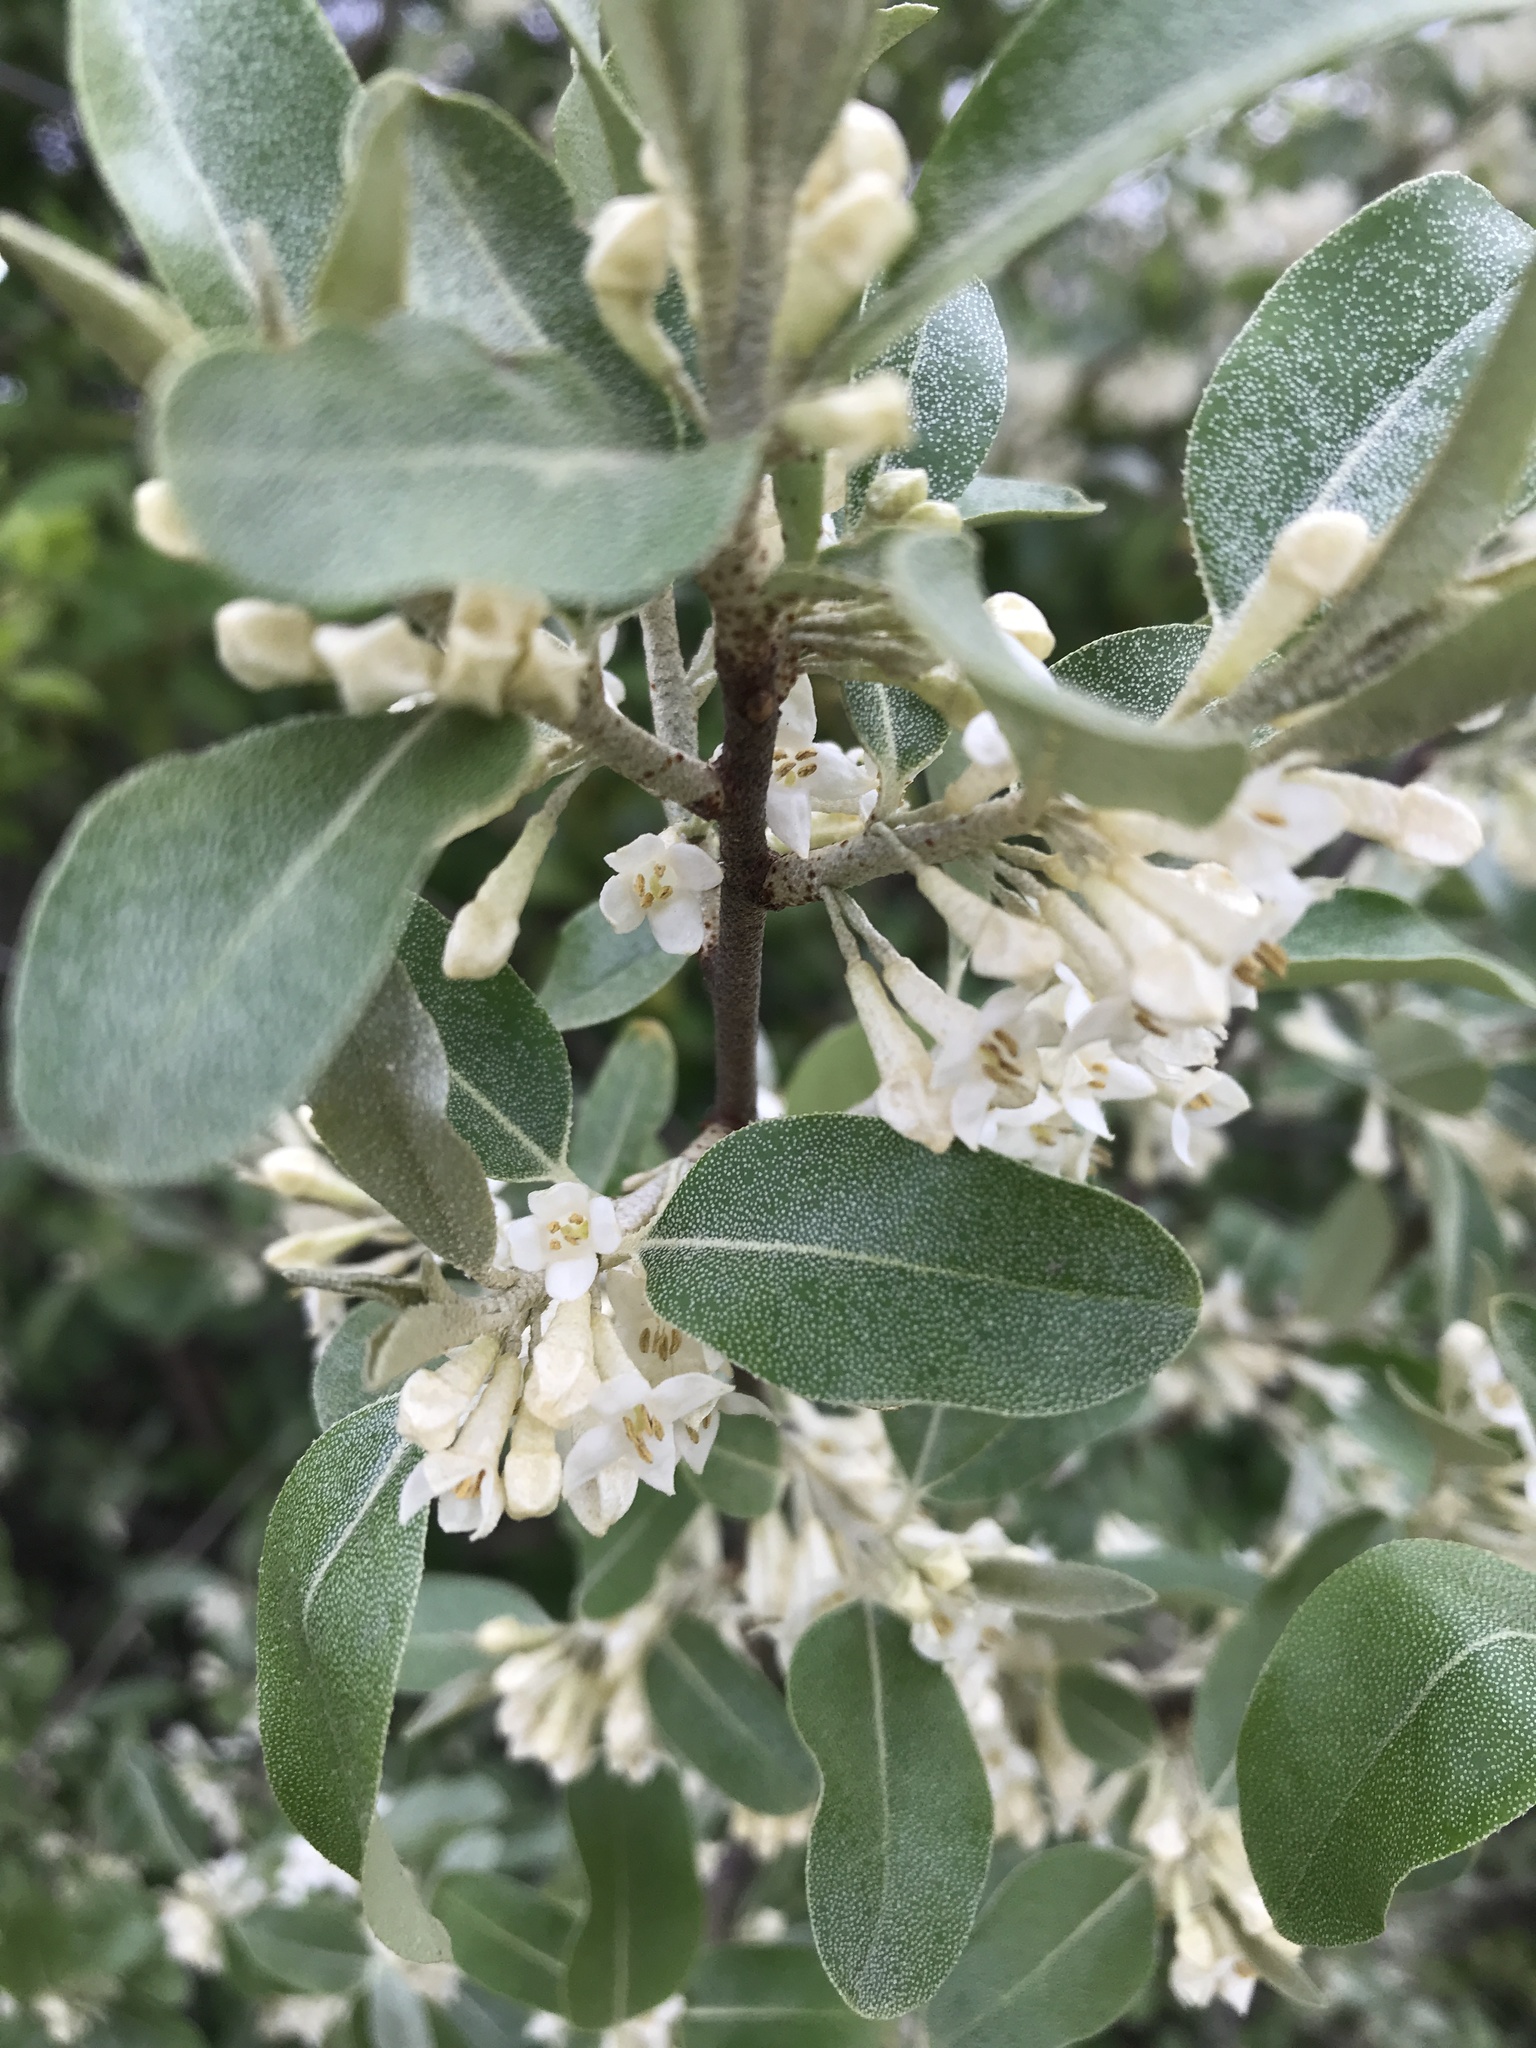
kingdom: Plantae
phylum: Tracheophyta
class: Magnoliopsida
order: Rosales
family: Elaeagnaceae
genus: Elaeagnus
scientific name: Elaeagnus umbellata
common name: Autumn olive
